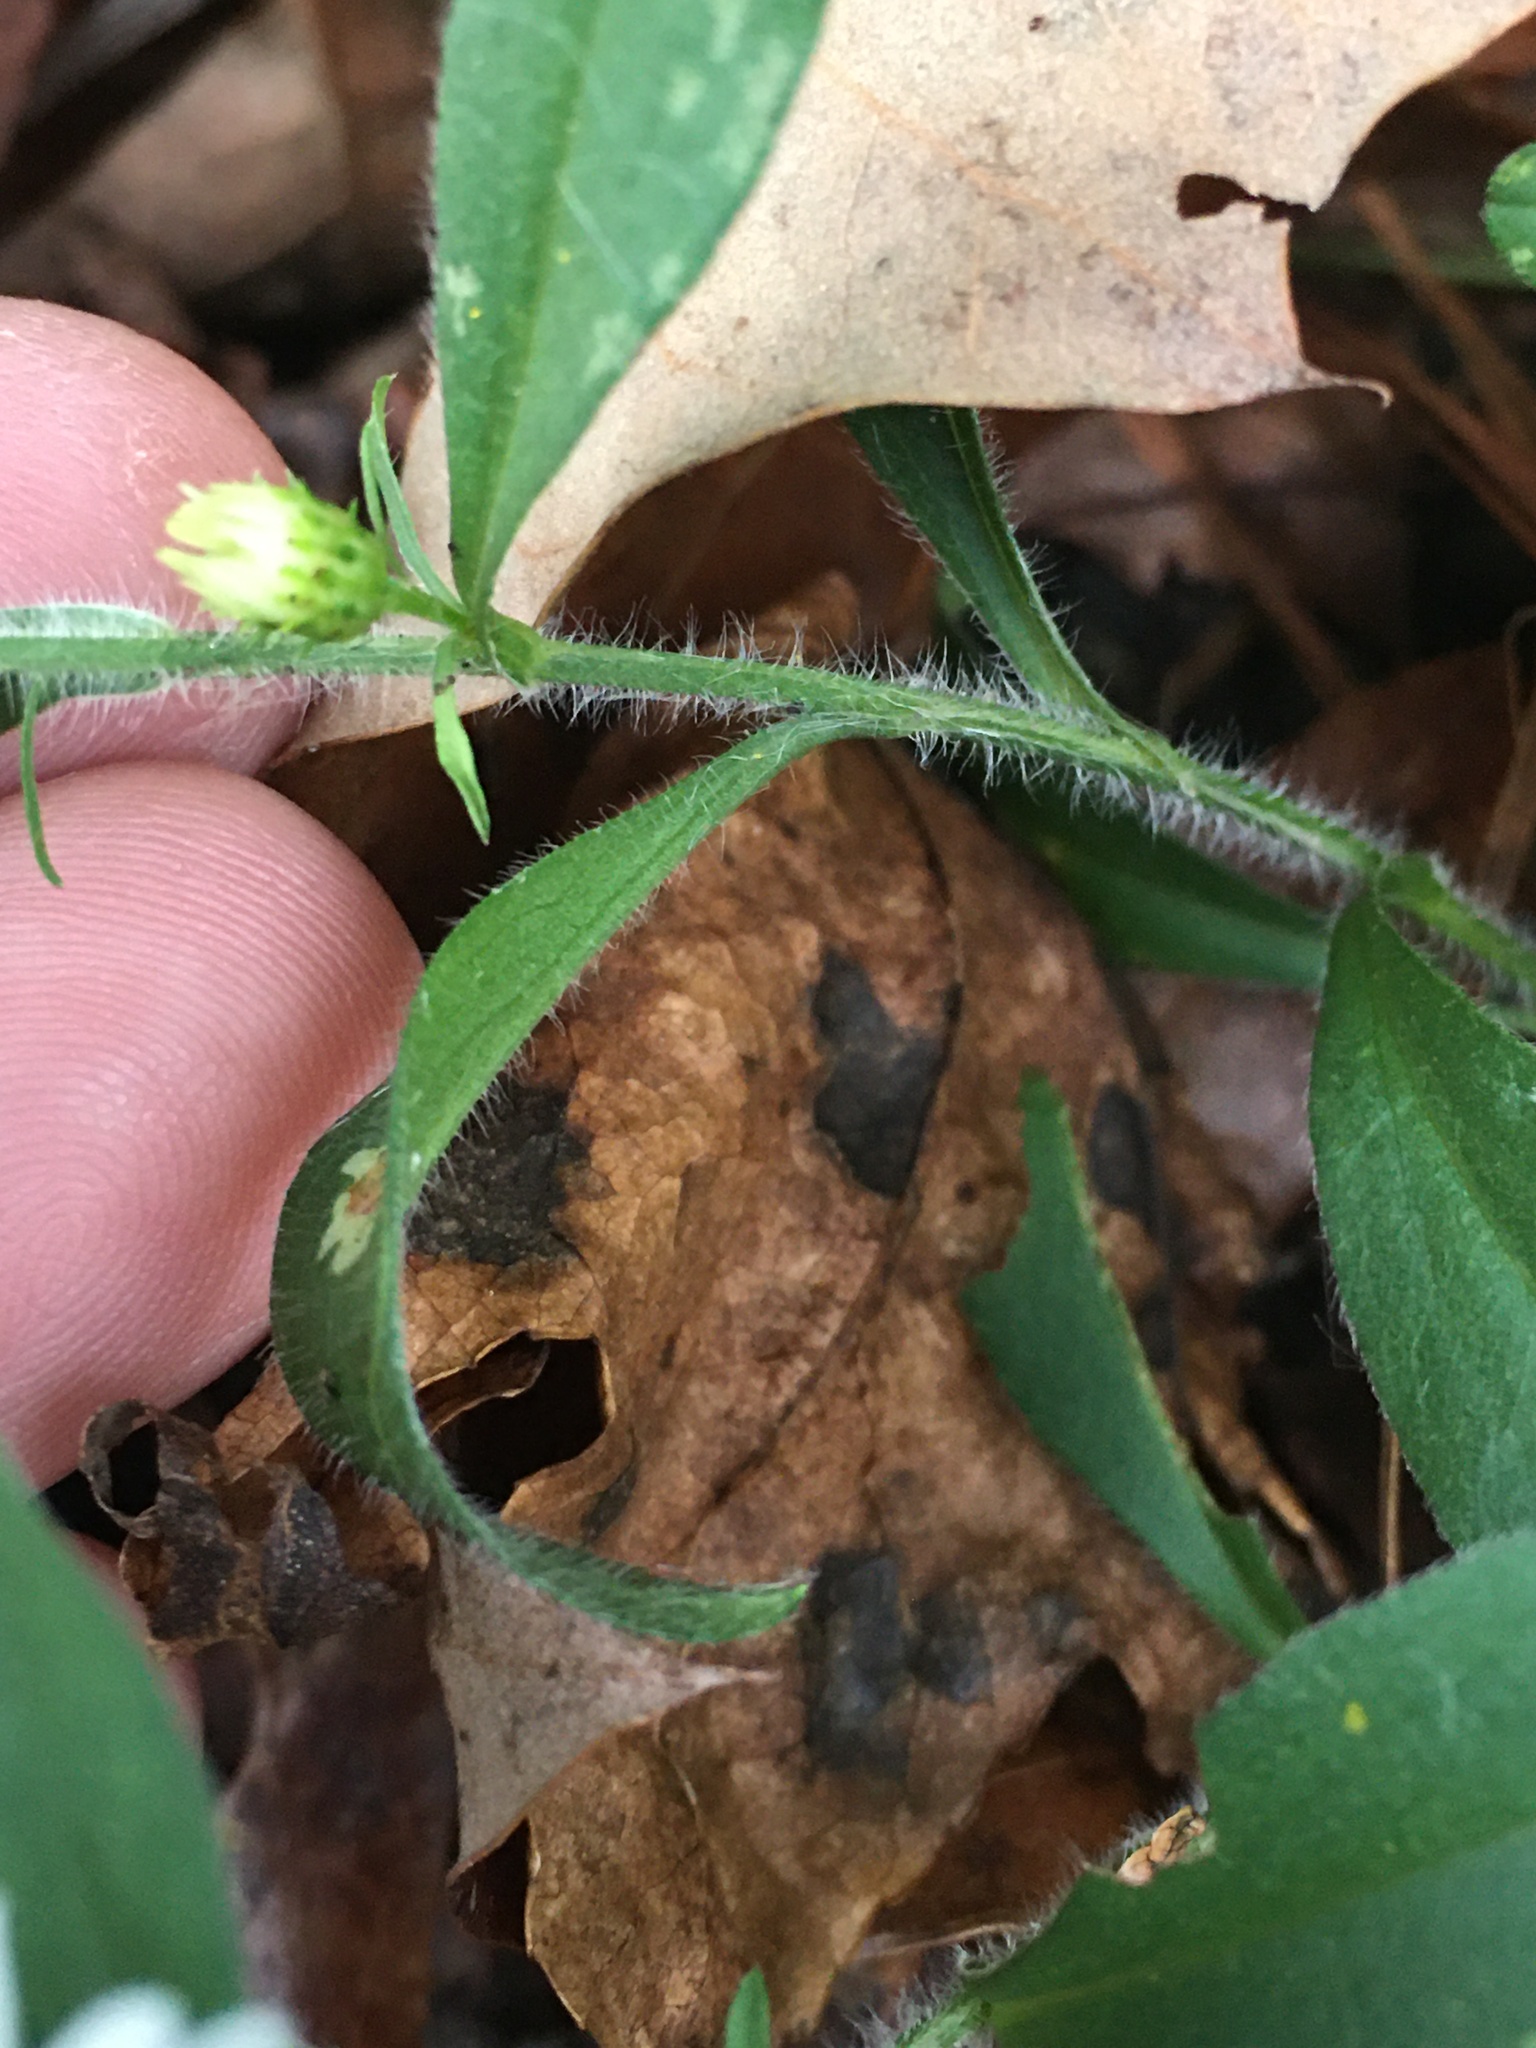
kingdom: Plantae
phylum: Tracheophyta
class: Magnoliopsida
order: Asterales
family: Asteraceae
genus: Symphyotrichum
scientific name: Symphyotrichum pilosum
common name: Awl aster
